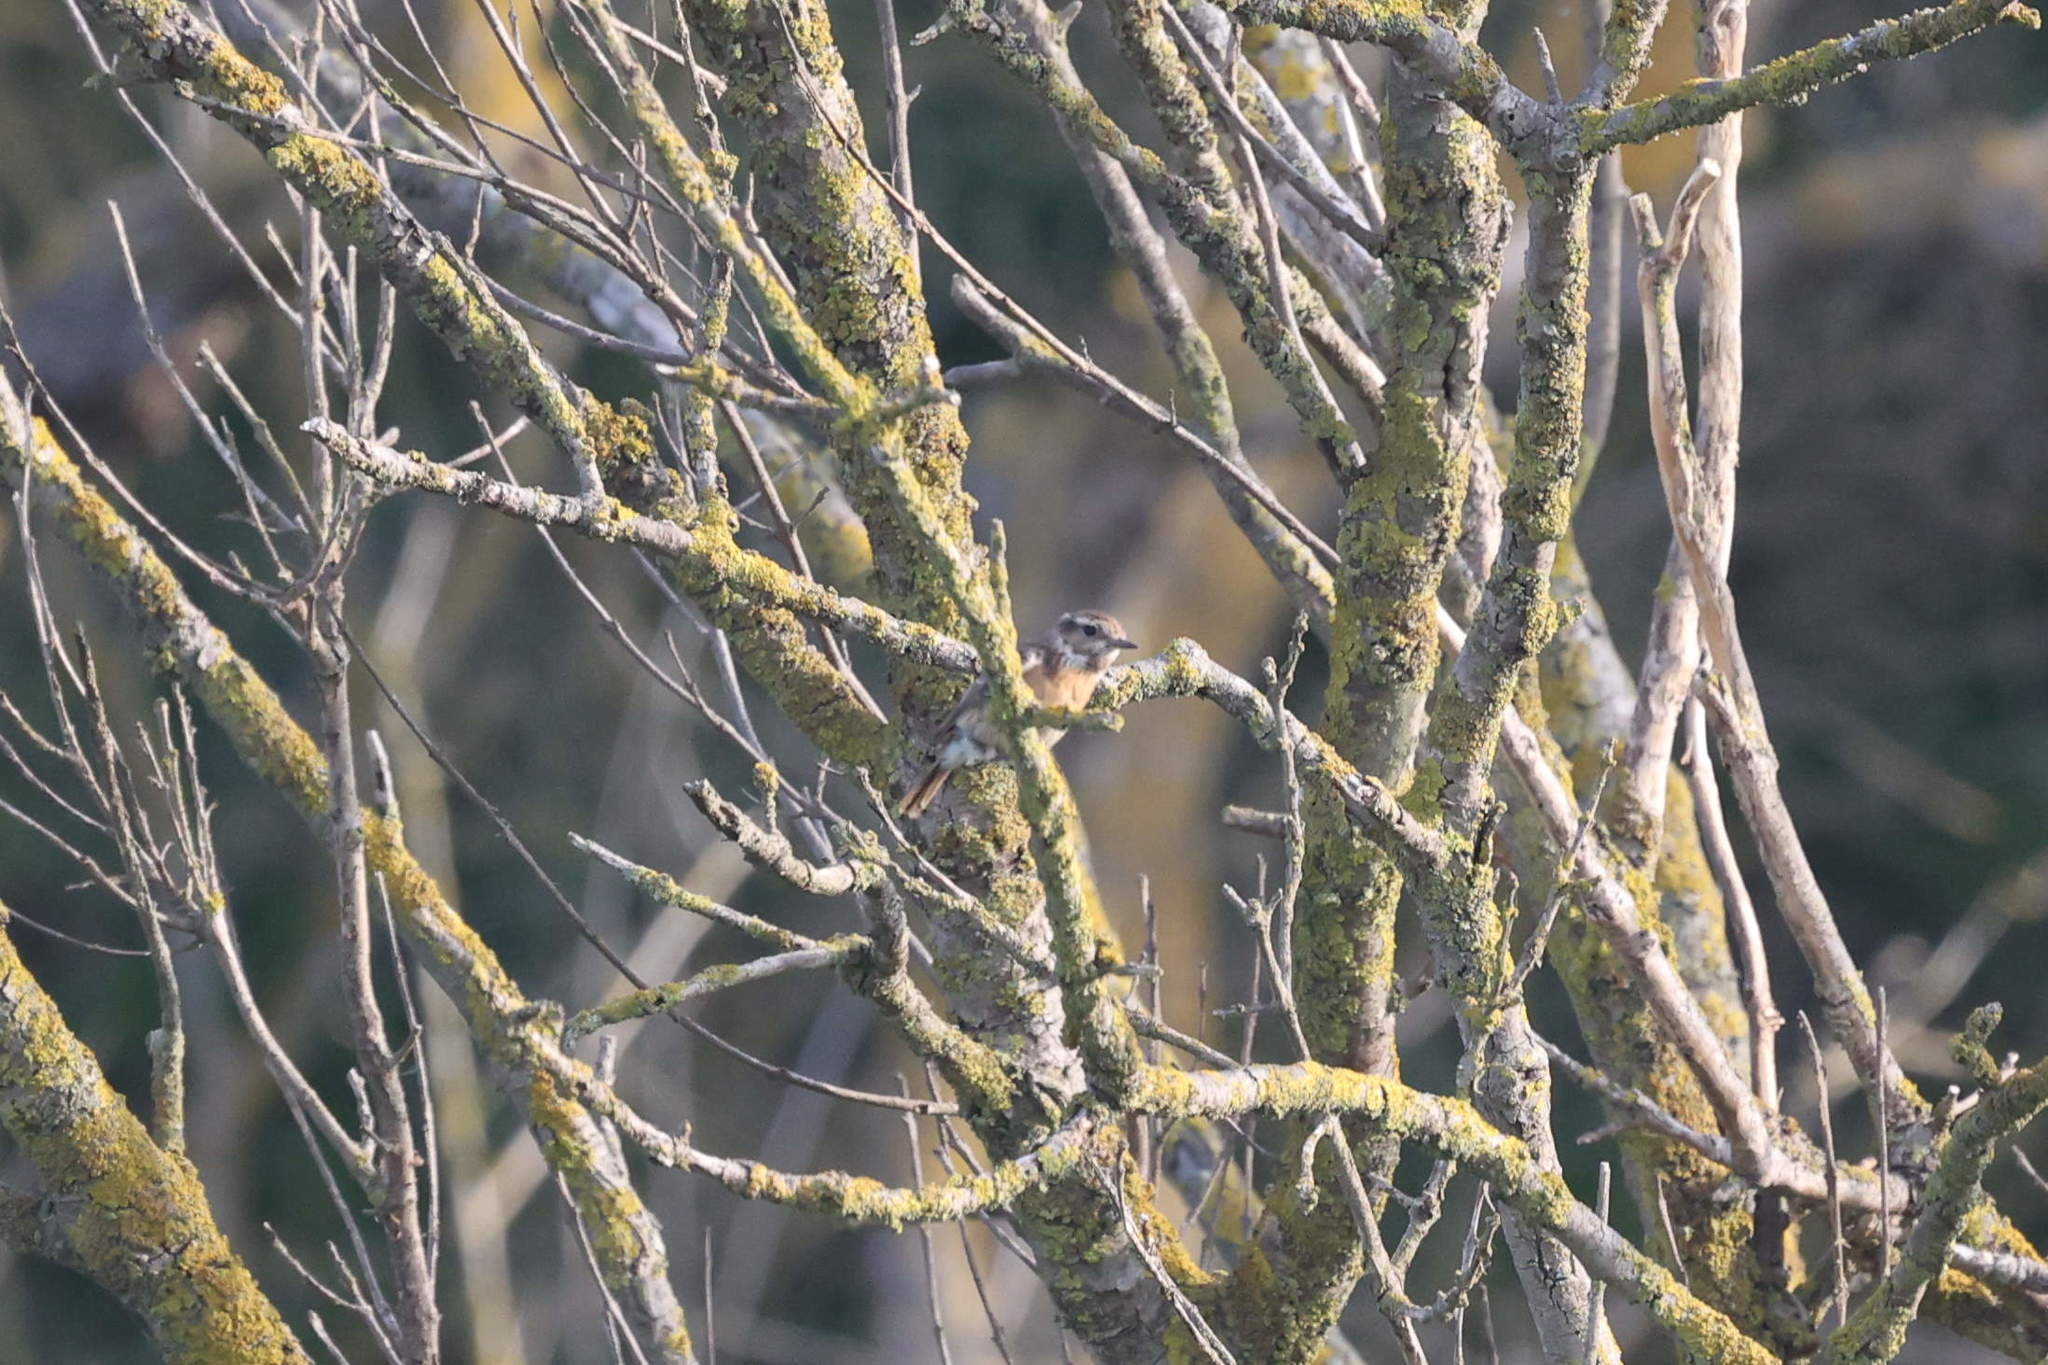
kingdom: Animalia
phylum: Chordata
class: Aves
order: Passeriformes
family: Muscicapidae
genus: Saxicola
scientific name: Saxicola rubicola
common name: European stonechat
